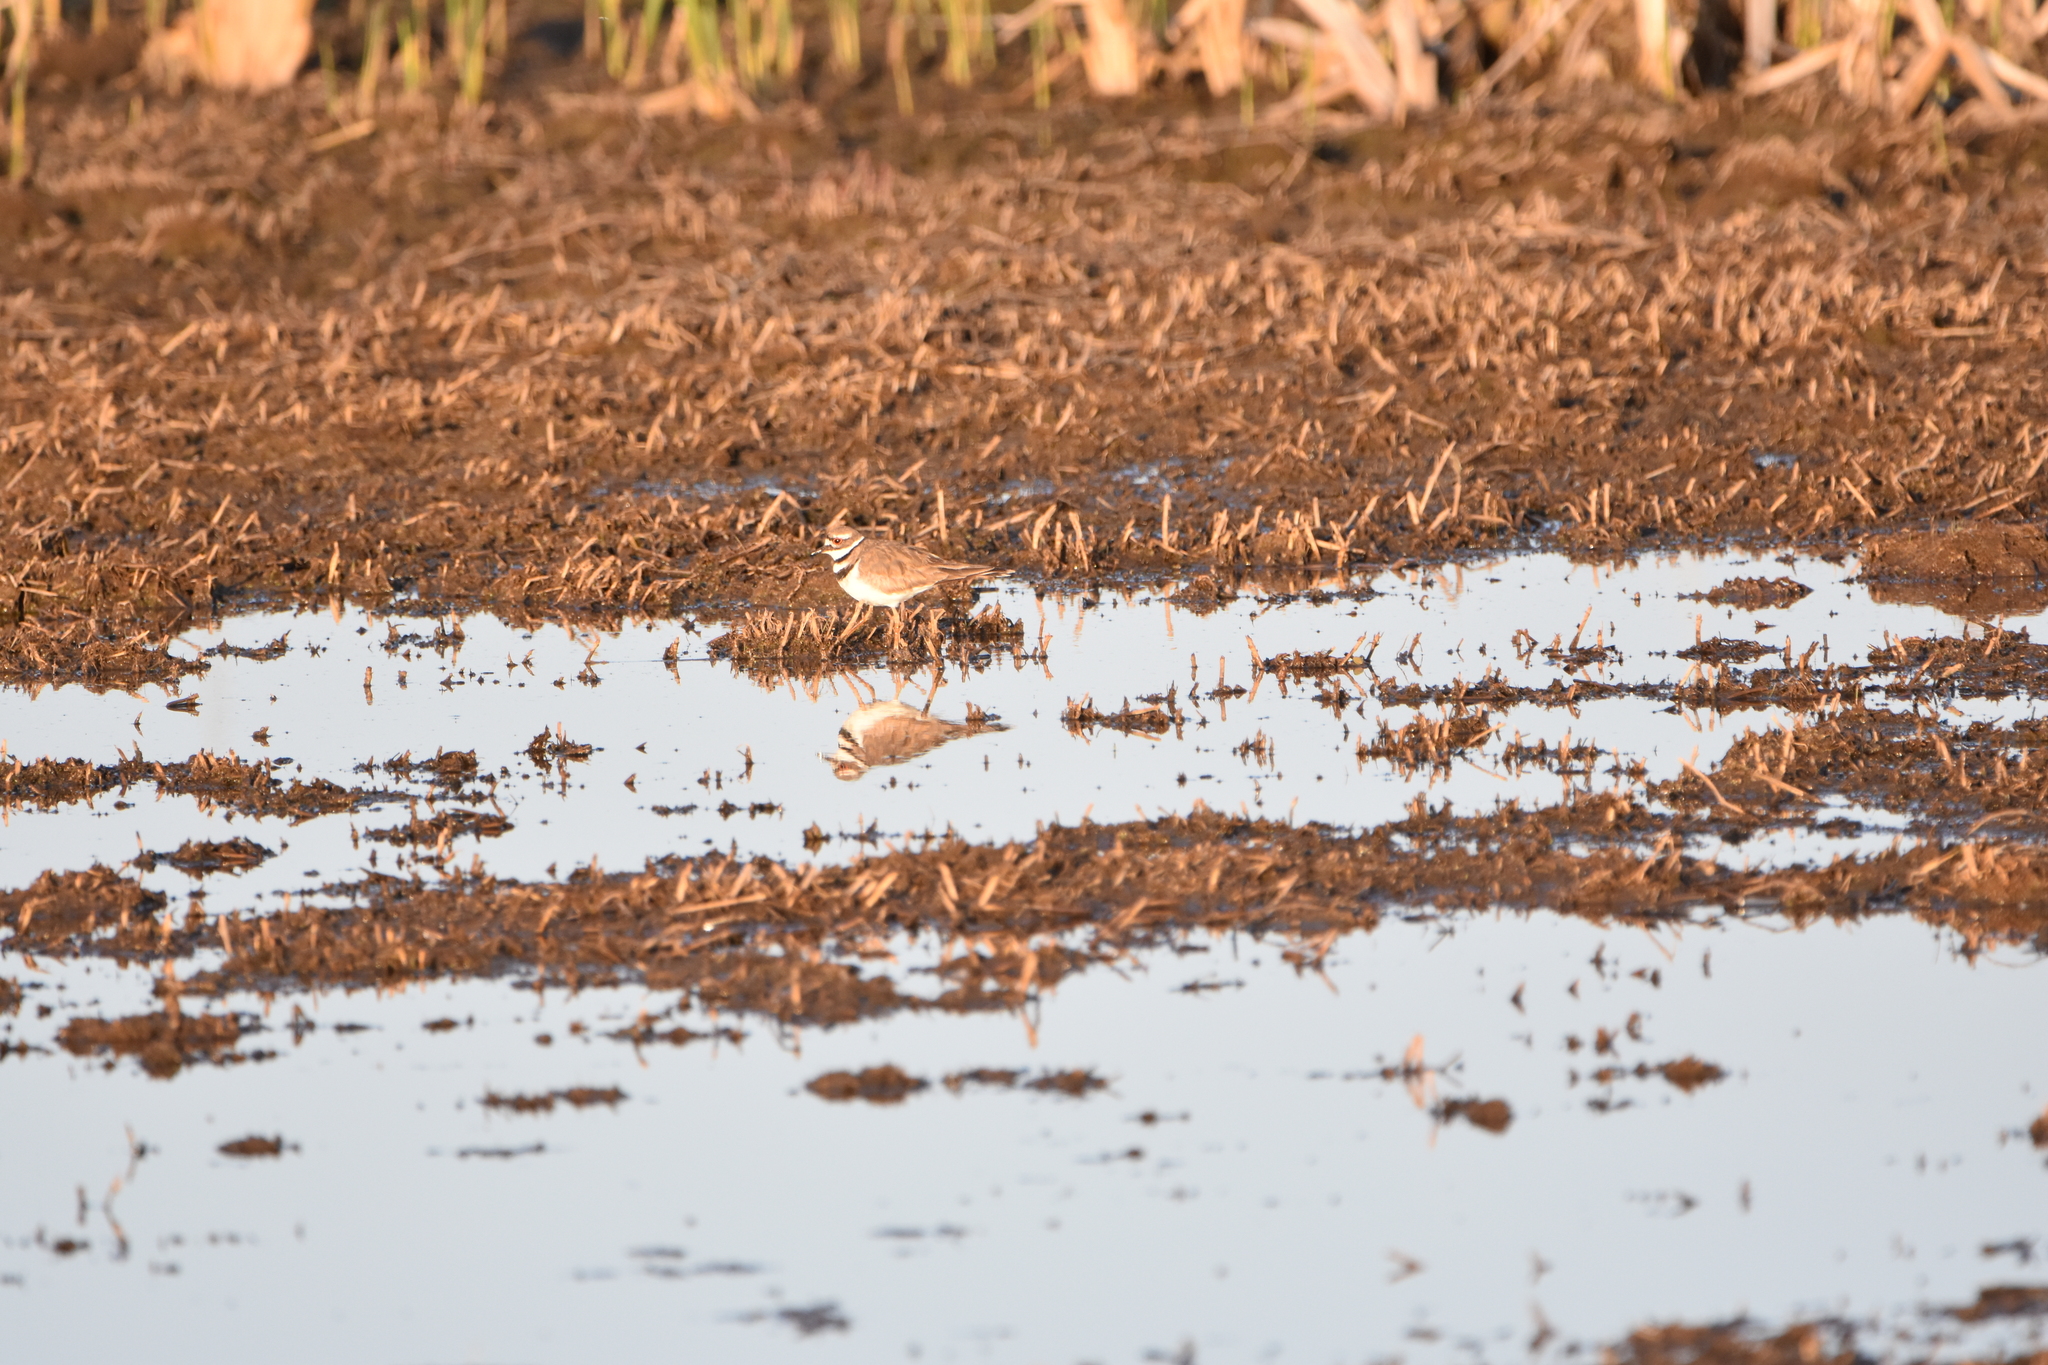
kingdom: Animalia
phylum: Chordata
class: Aves
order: Charadriiformes
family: Charadriidae
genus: Charadrius
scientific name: Charadrius vociferus
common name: Killdeer
